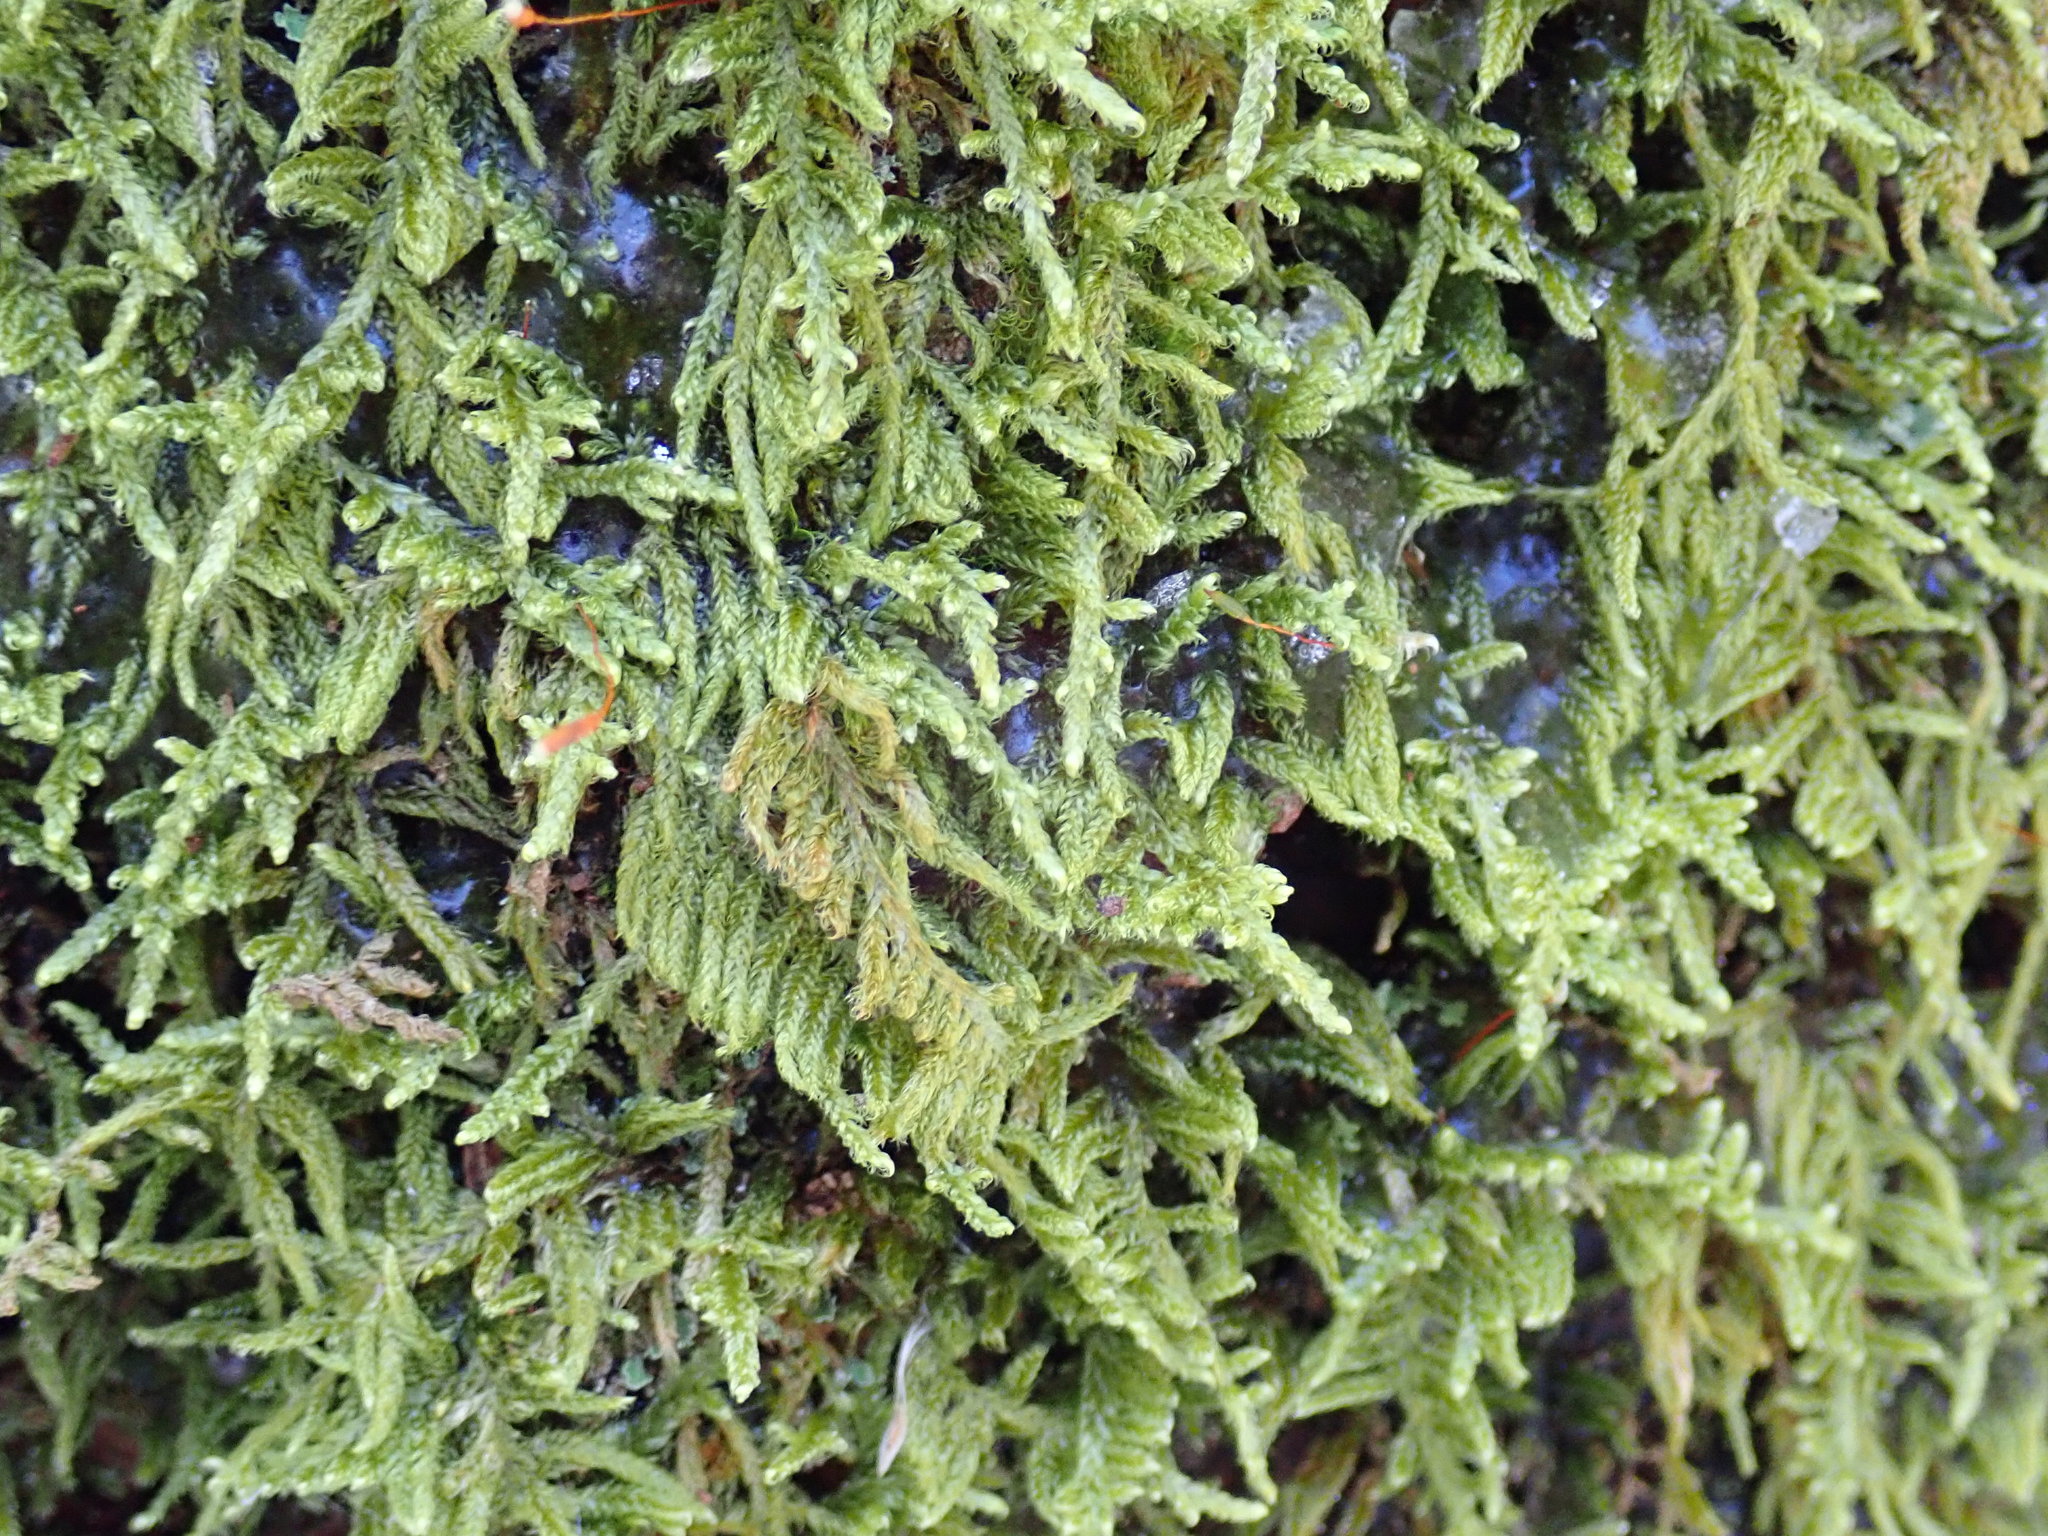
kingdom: Plantae
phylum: Bryophyta
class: Bryopsida
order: Hypnales
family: Callicladiaceae
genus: Callicladium
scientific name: Callicladium imponens
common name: Brocade moss
